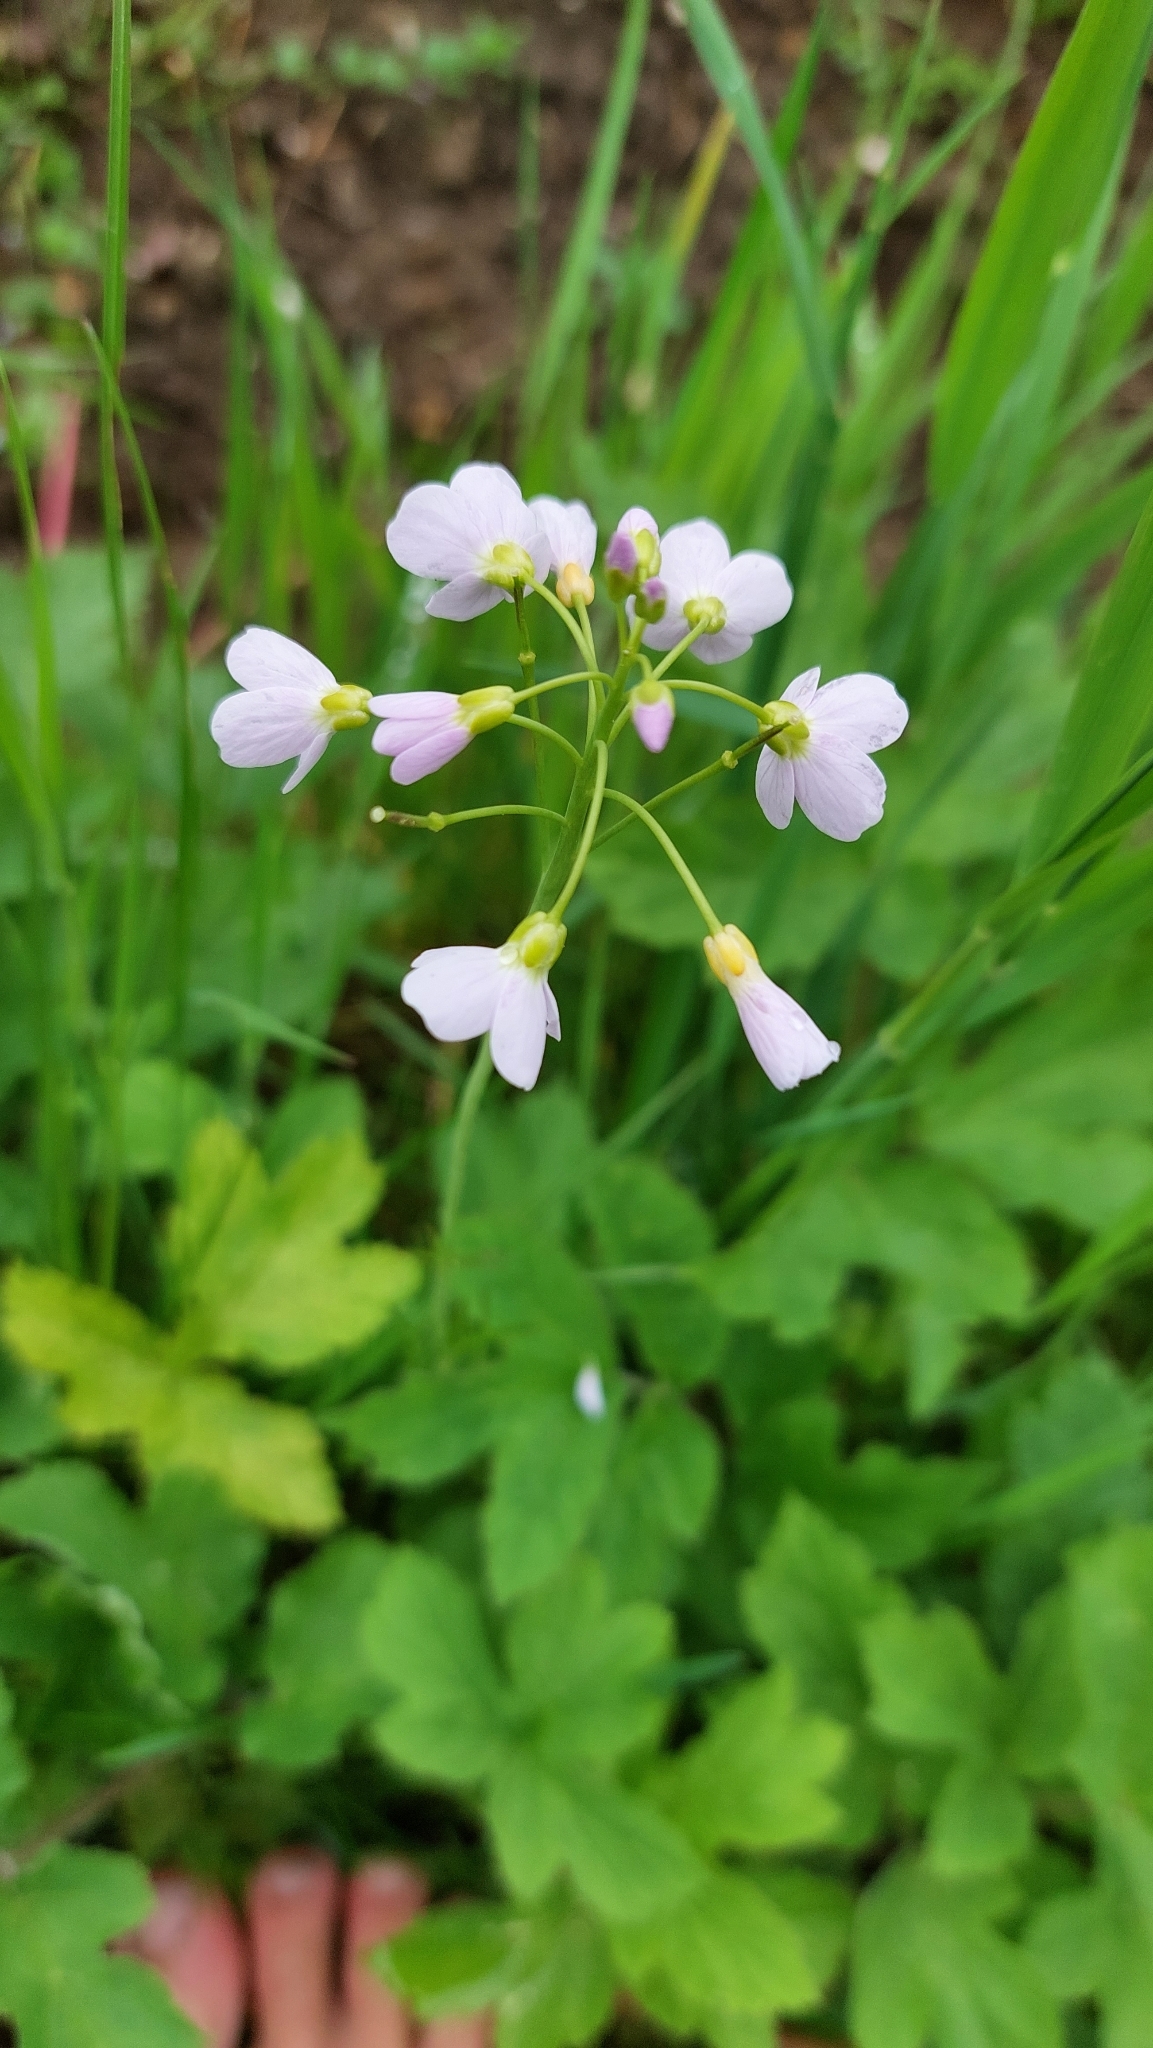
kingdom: Plantae
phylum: Tracheophyta
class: Magnoliopsida
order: Brassicales
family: Brassicaceae
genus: Cardamine
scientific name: Cardamine pratensis
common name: Cuckoo flower
